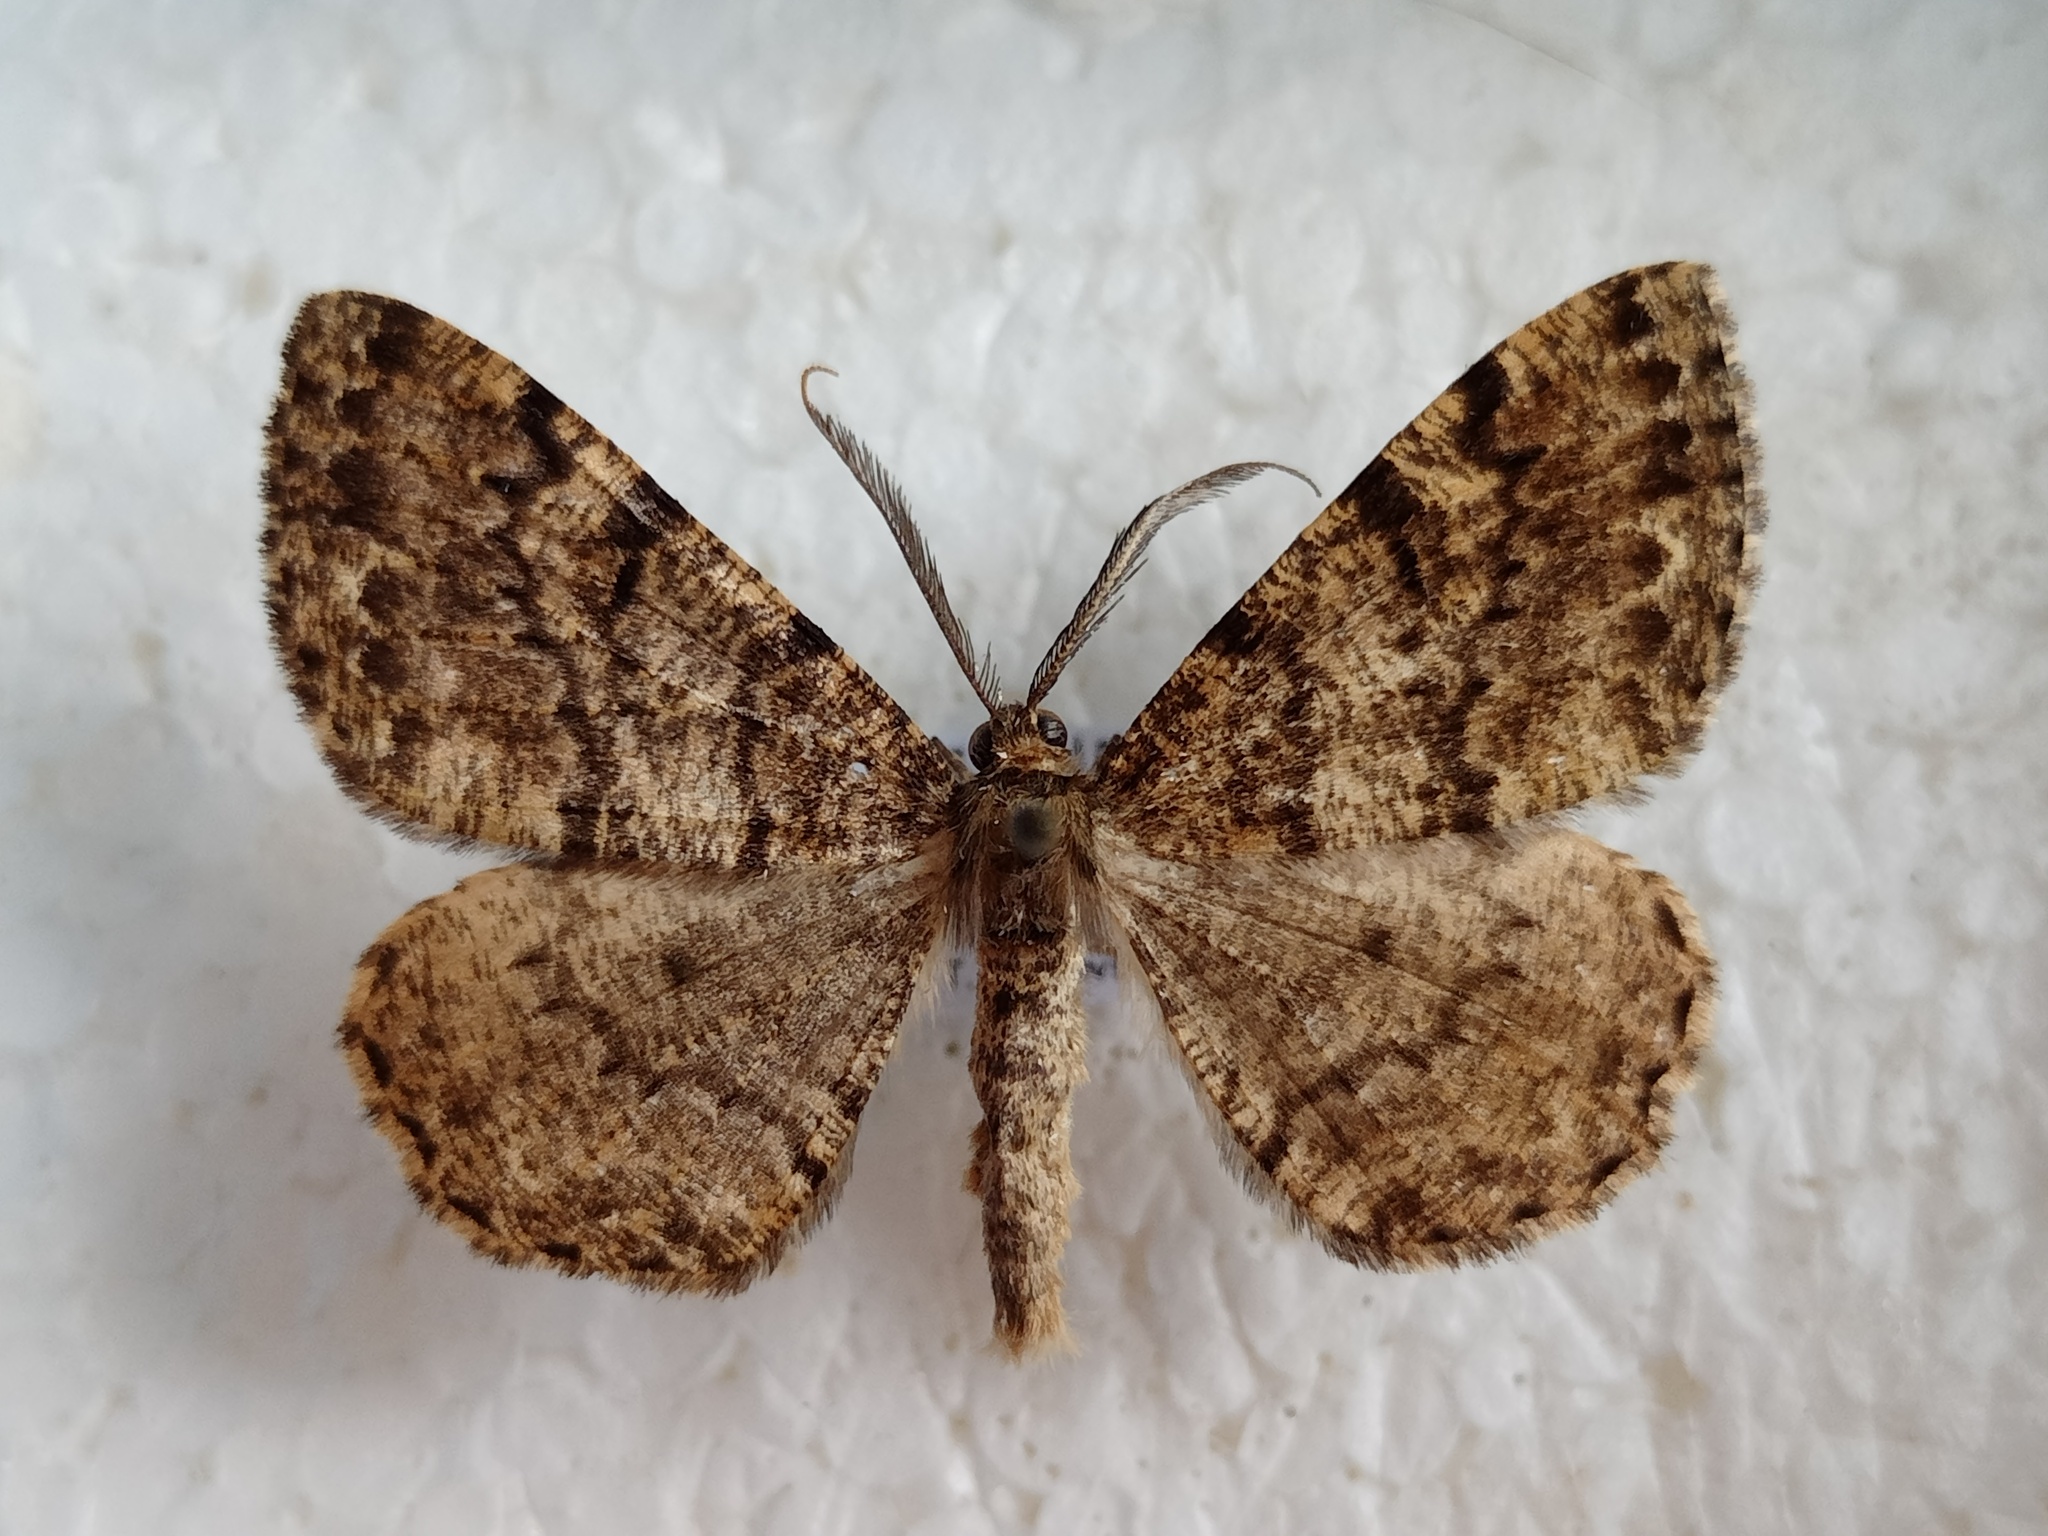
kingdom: Animalia
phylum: Arthropoda
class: Insecta
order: Lepidoptera
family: Geometridae
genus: Deileptenia
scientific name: Deileptenia ribeata
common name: Satin beauty
